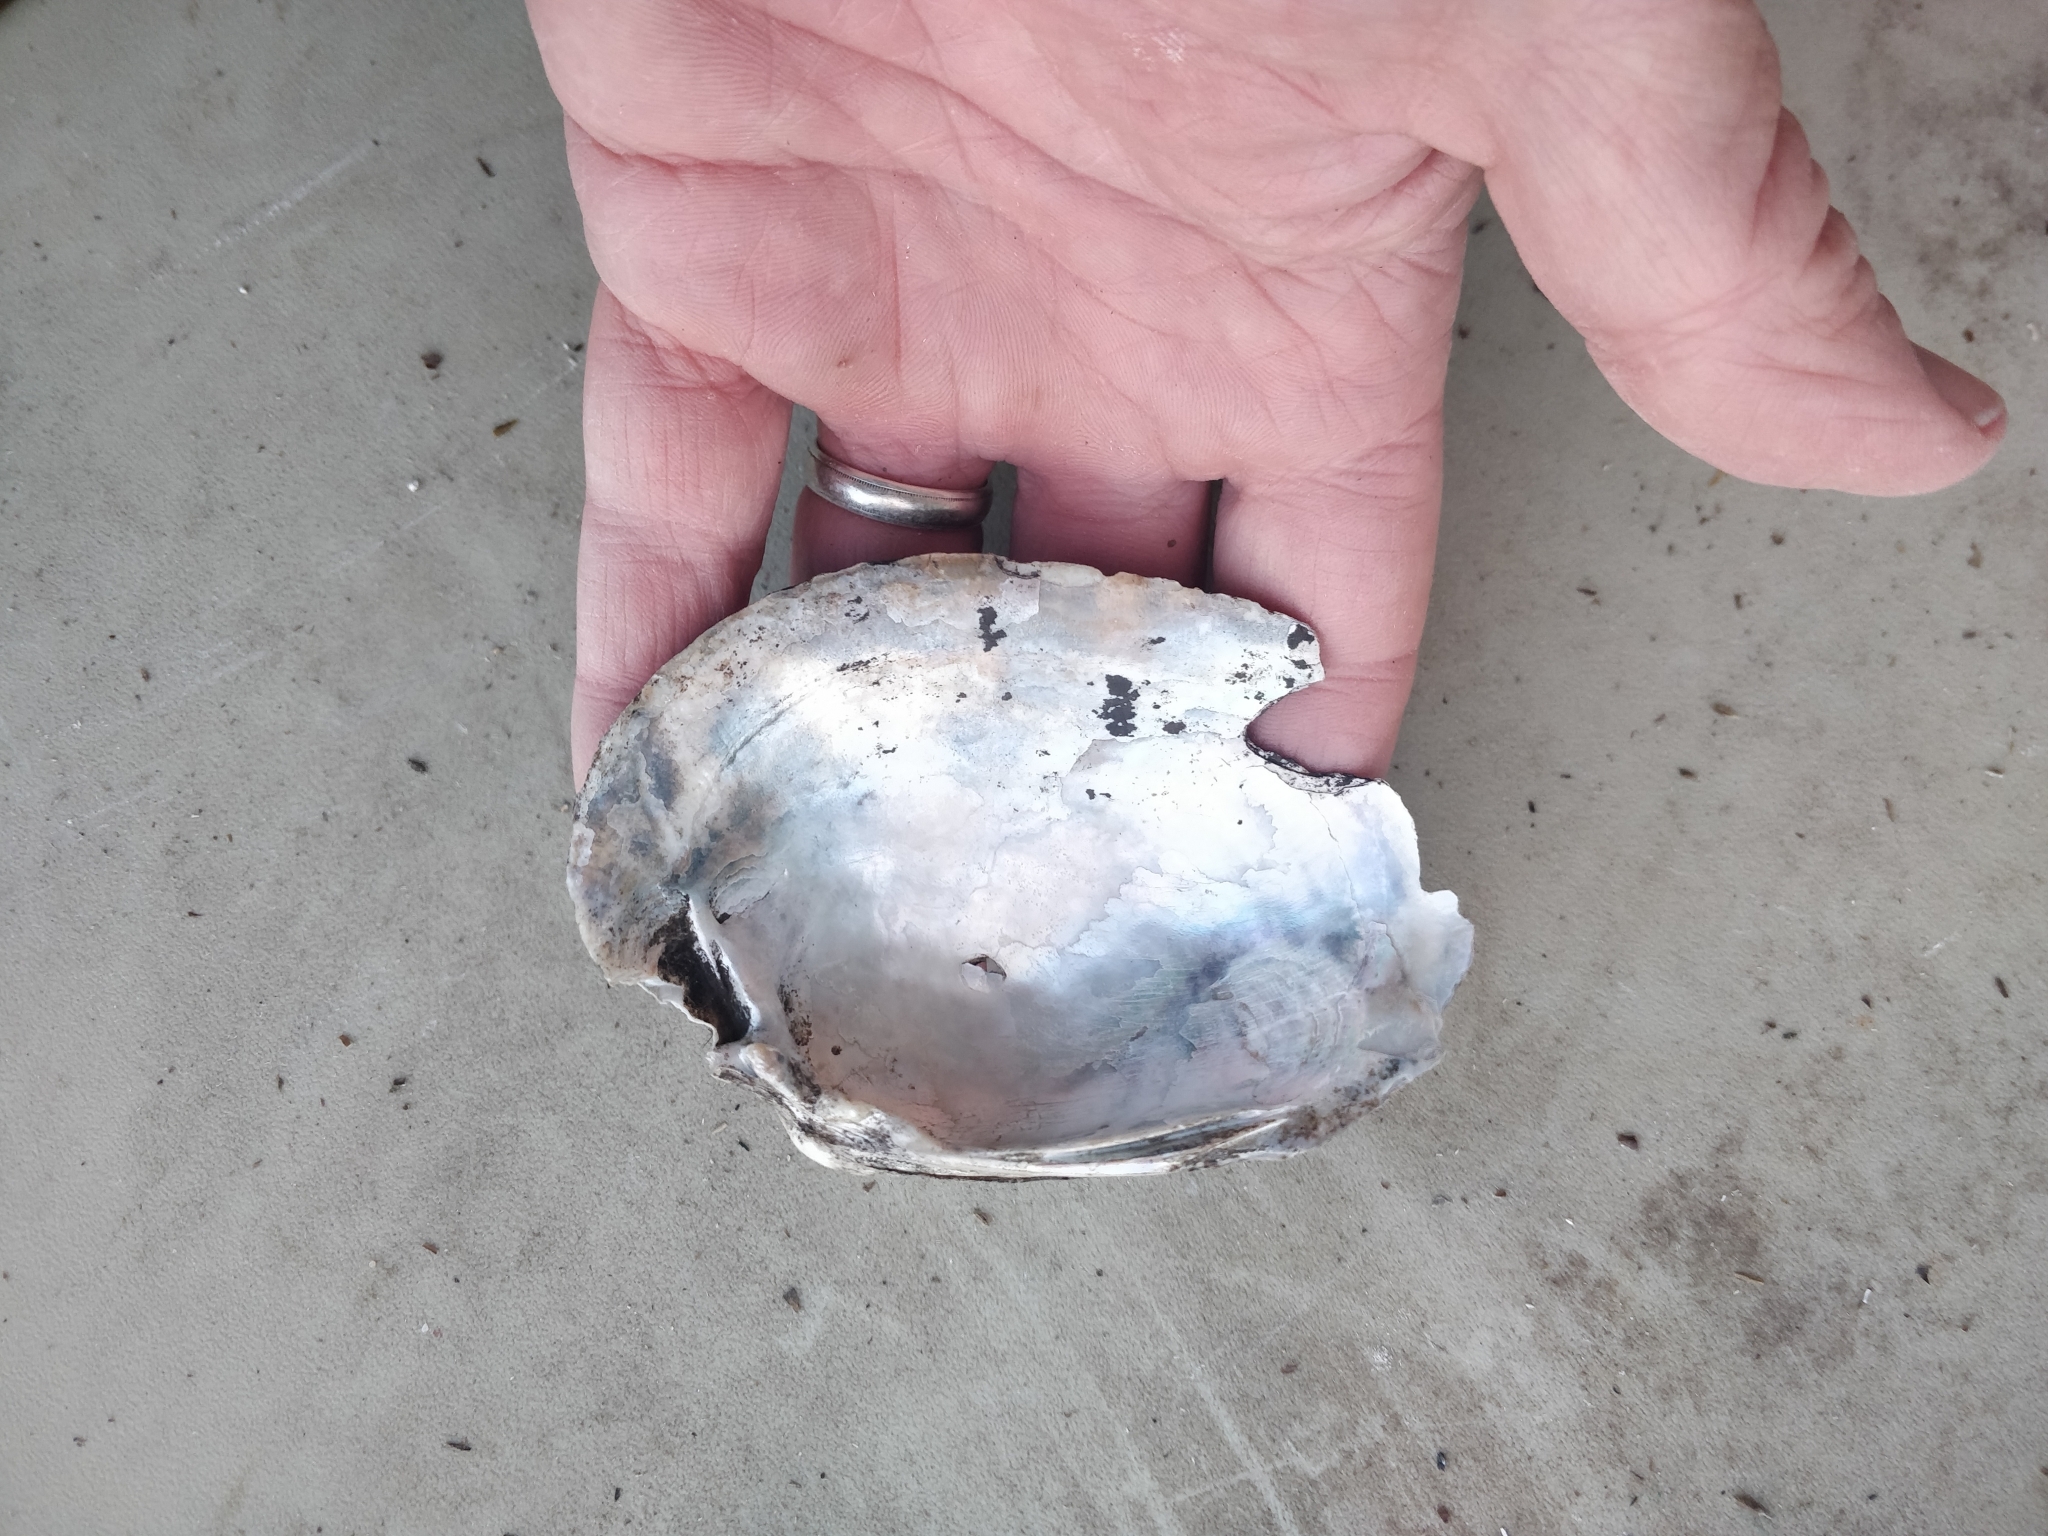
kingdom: Animalia
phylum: Mollusca
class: Bivalvia
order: Unionida
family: Unionidae
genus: Lampsilis
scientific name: Lampsilis cardium
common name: Plain pocketbook
